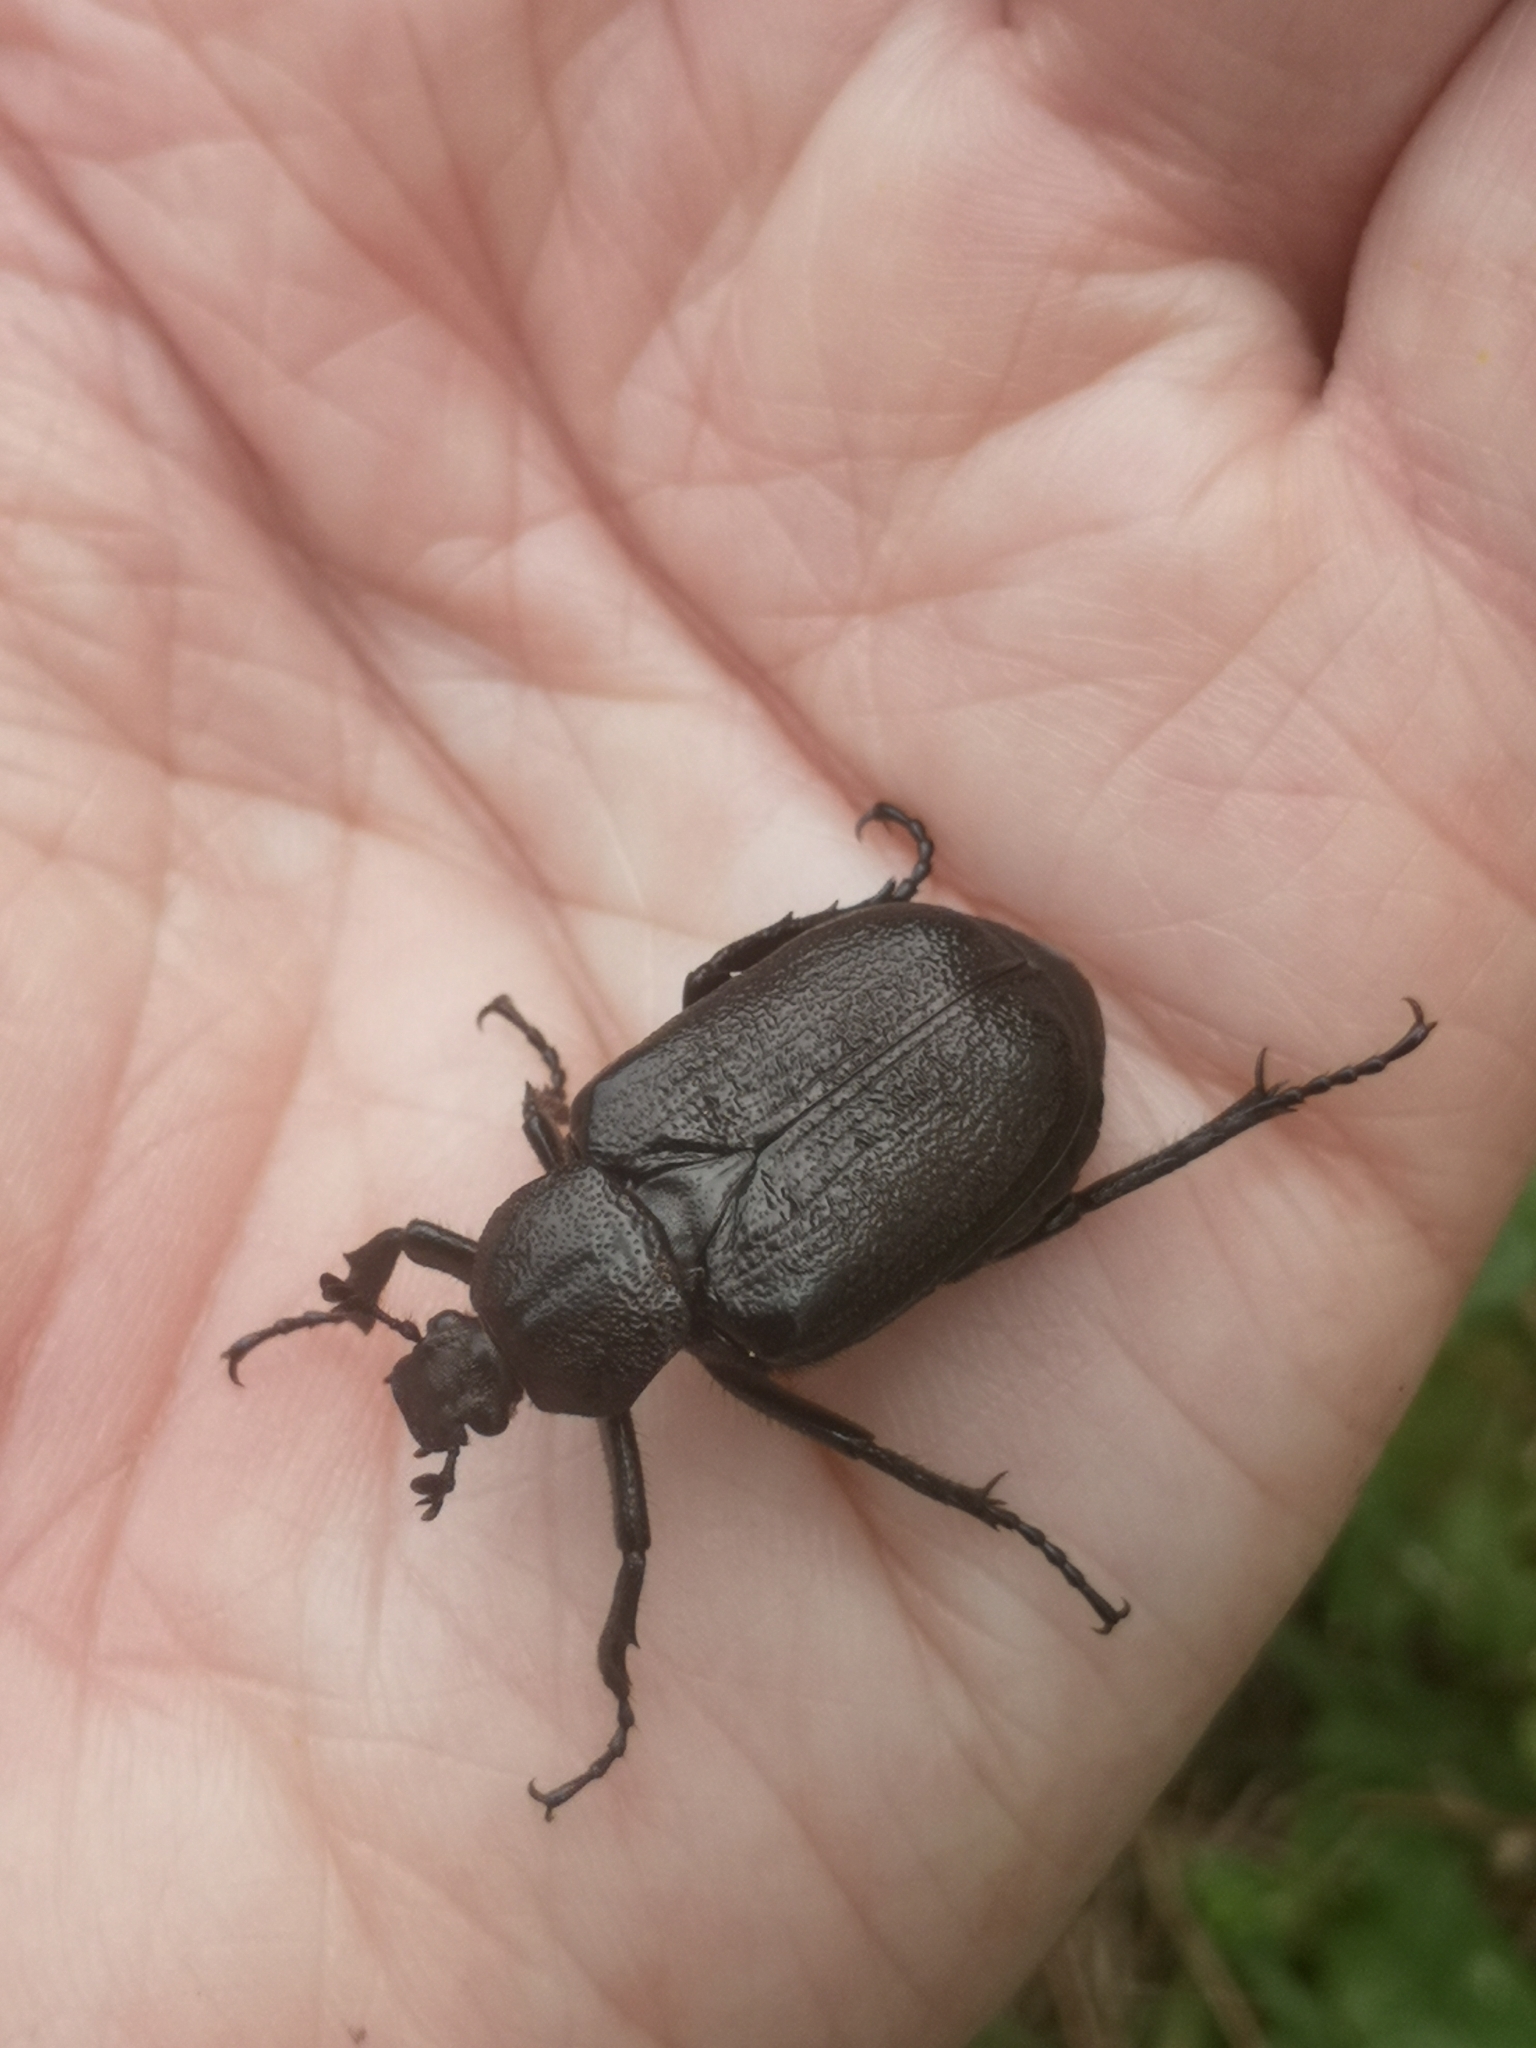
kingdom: Animalia
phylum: Arthropoda
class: Insecta
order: Coleoptera
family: Scarabaeidae
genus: Osmoderma
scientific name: Osmoderma scabra
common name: Rough hermit beetle
